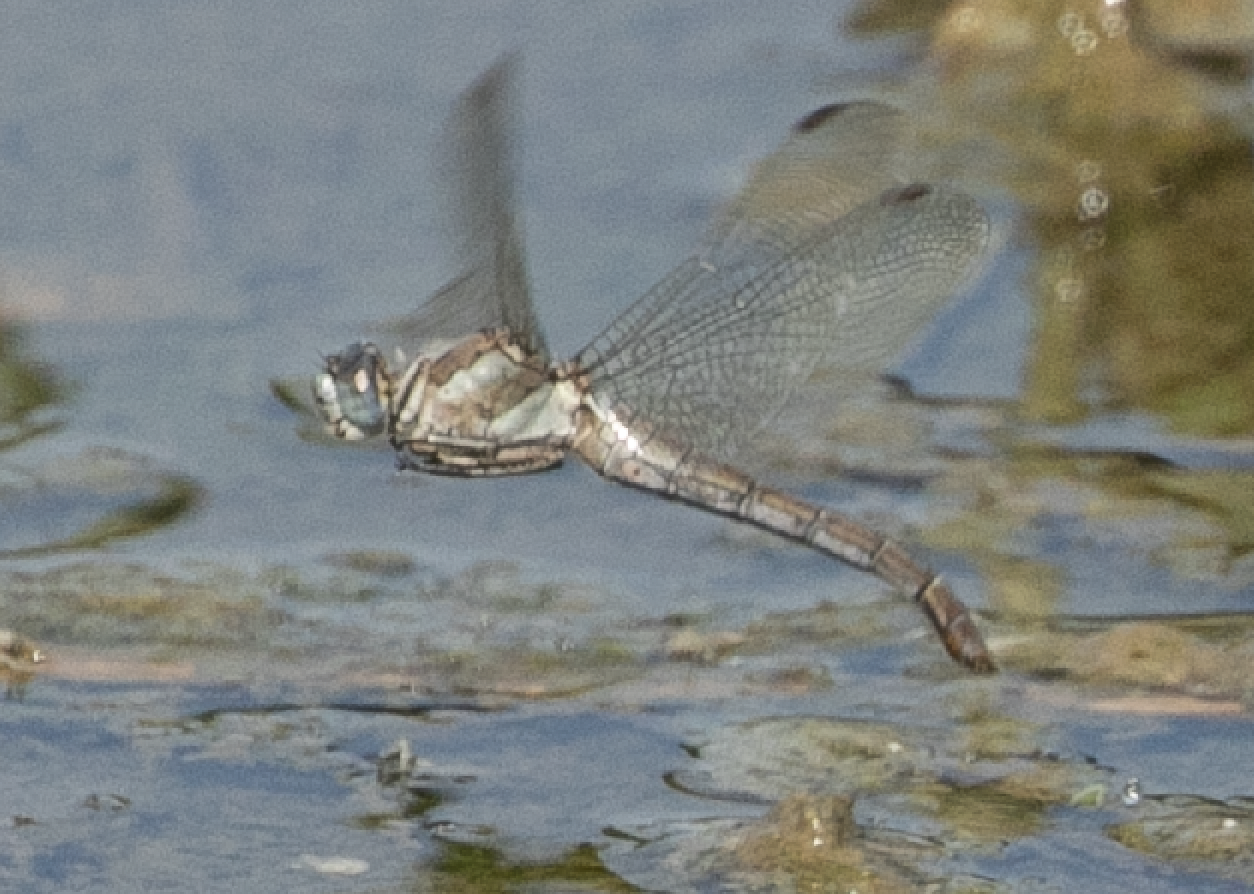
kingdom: Animalia
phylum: Arthropoda
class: Insecta
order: Odonata
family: Libellulidae
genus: Orthetrum
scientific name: Orthetrum brunneum
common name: Southern skimmer
